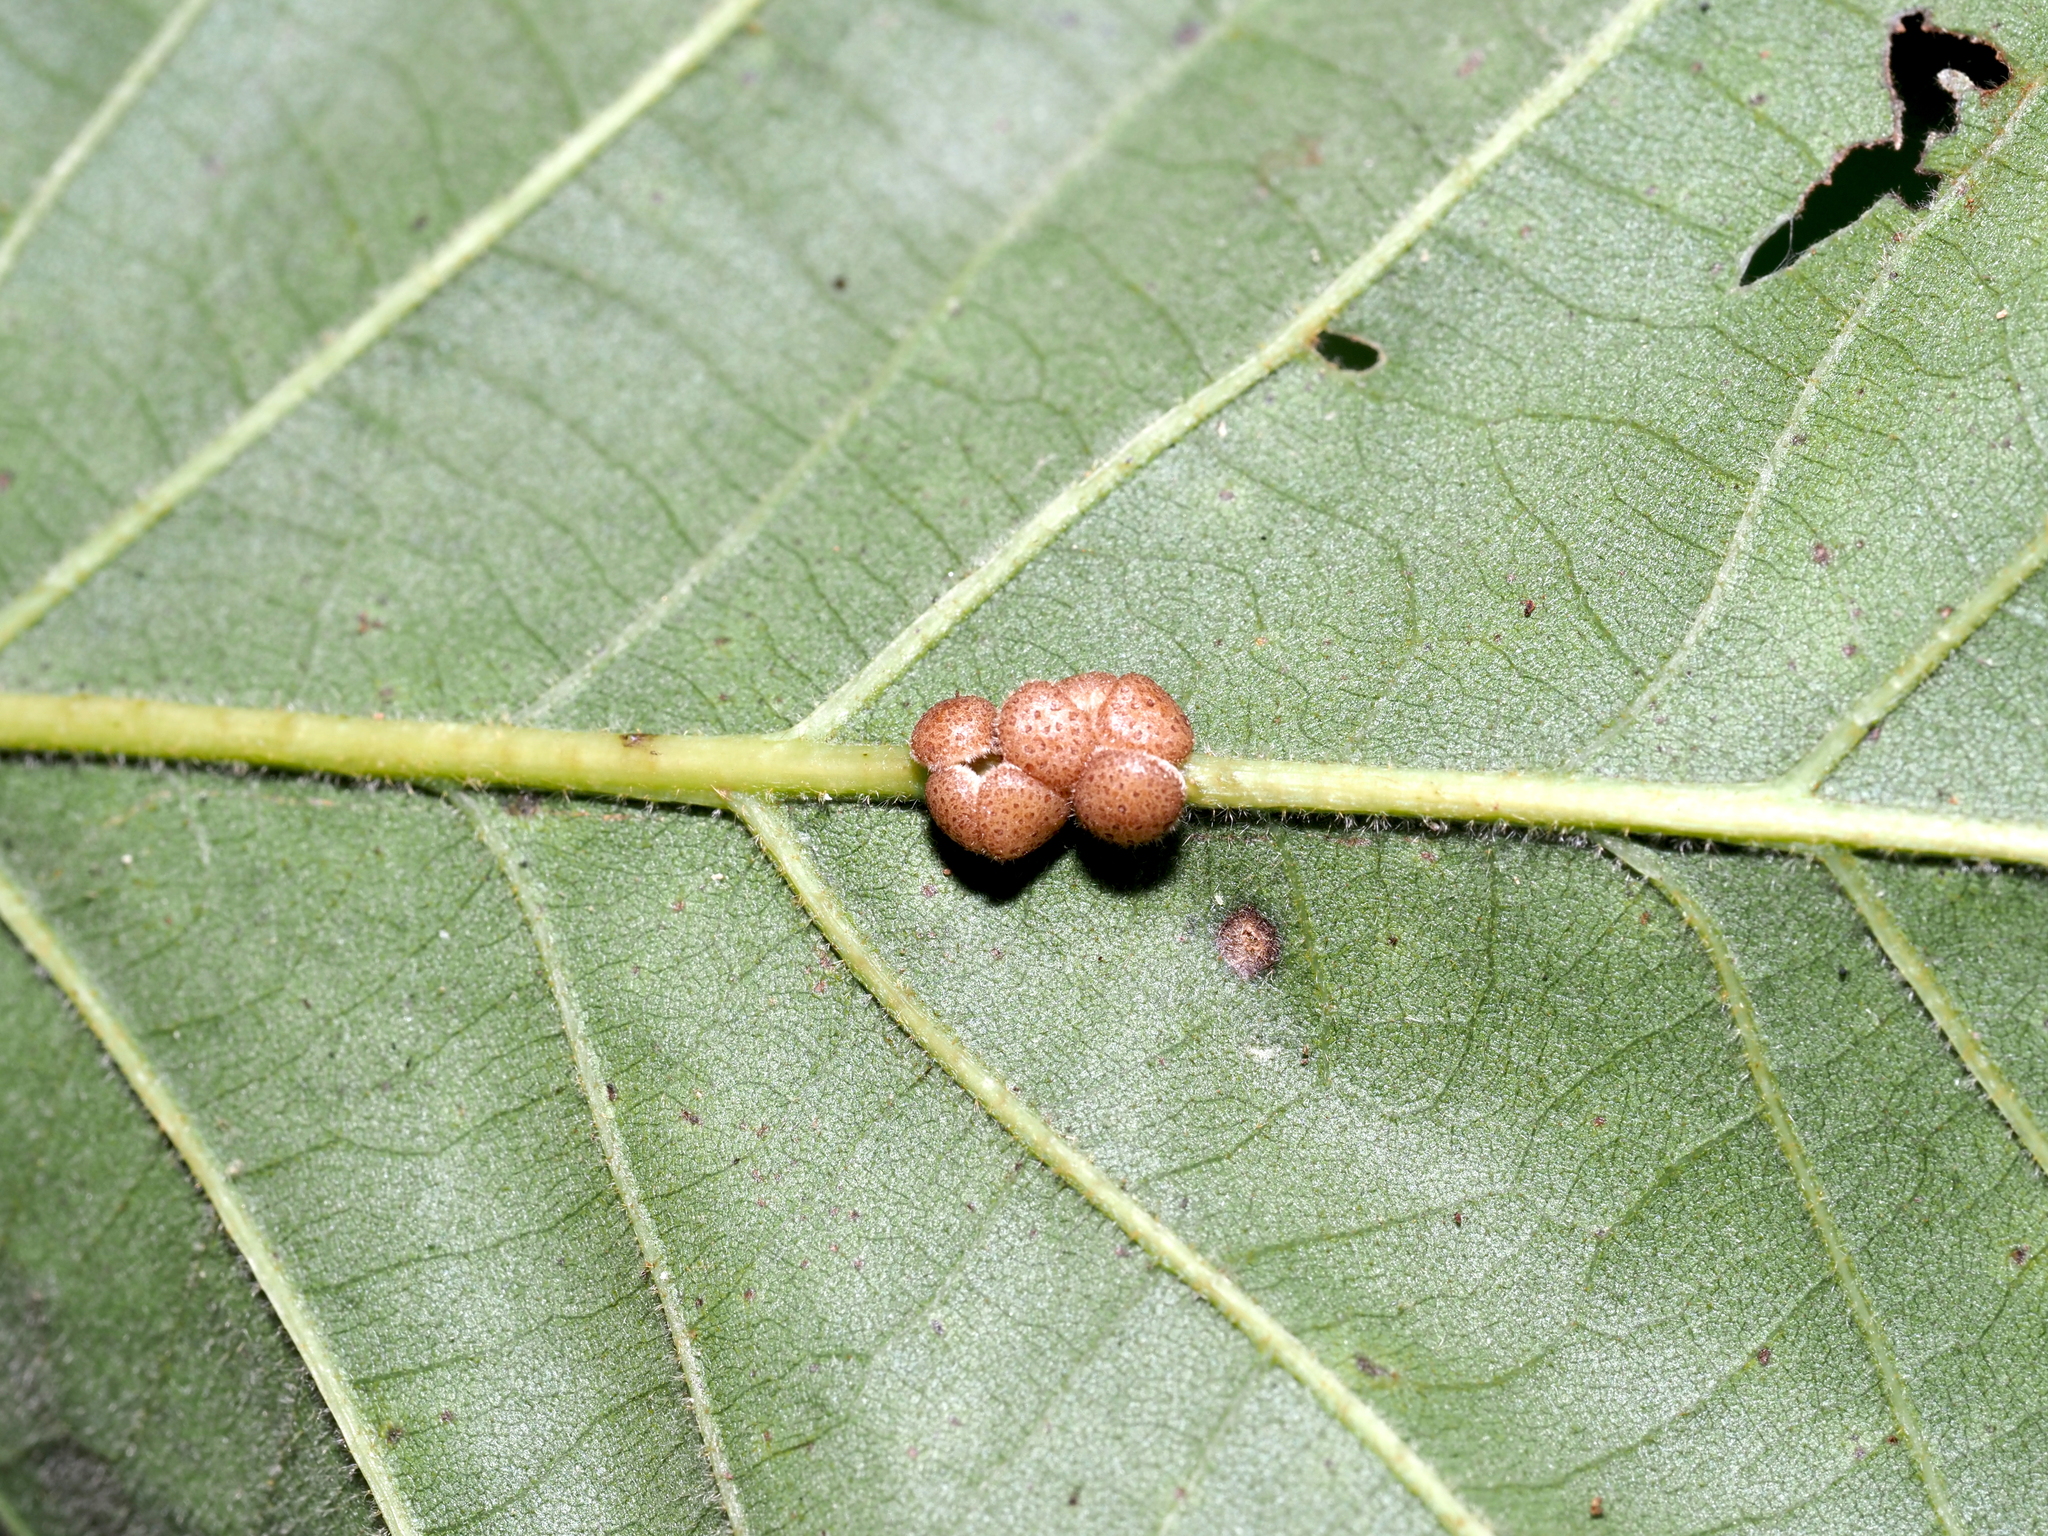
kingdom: Animalia
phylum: Arthropoda
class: Insecta
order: Hymenoptera
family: Cynipidae
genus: Andricus
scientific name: Andricus
